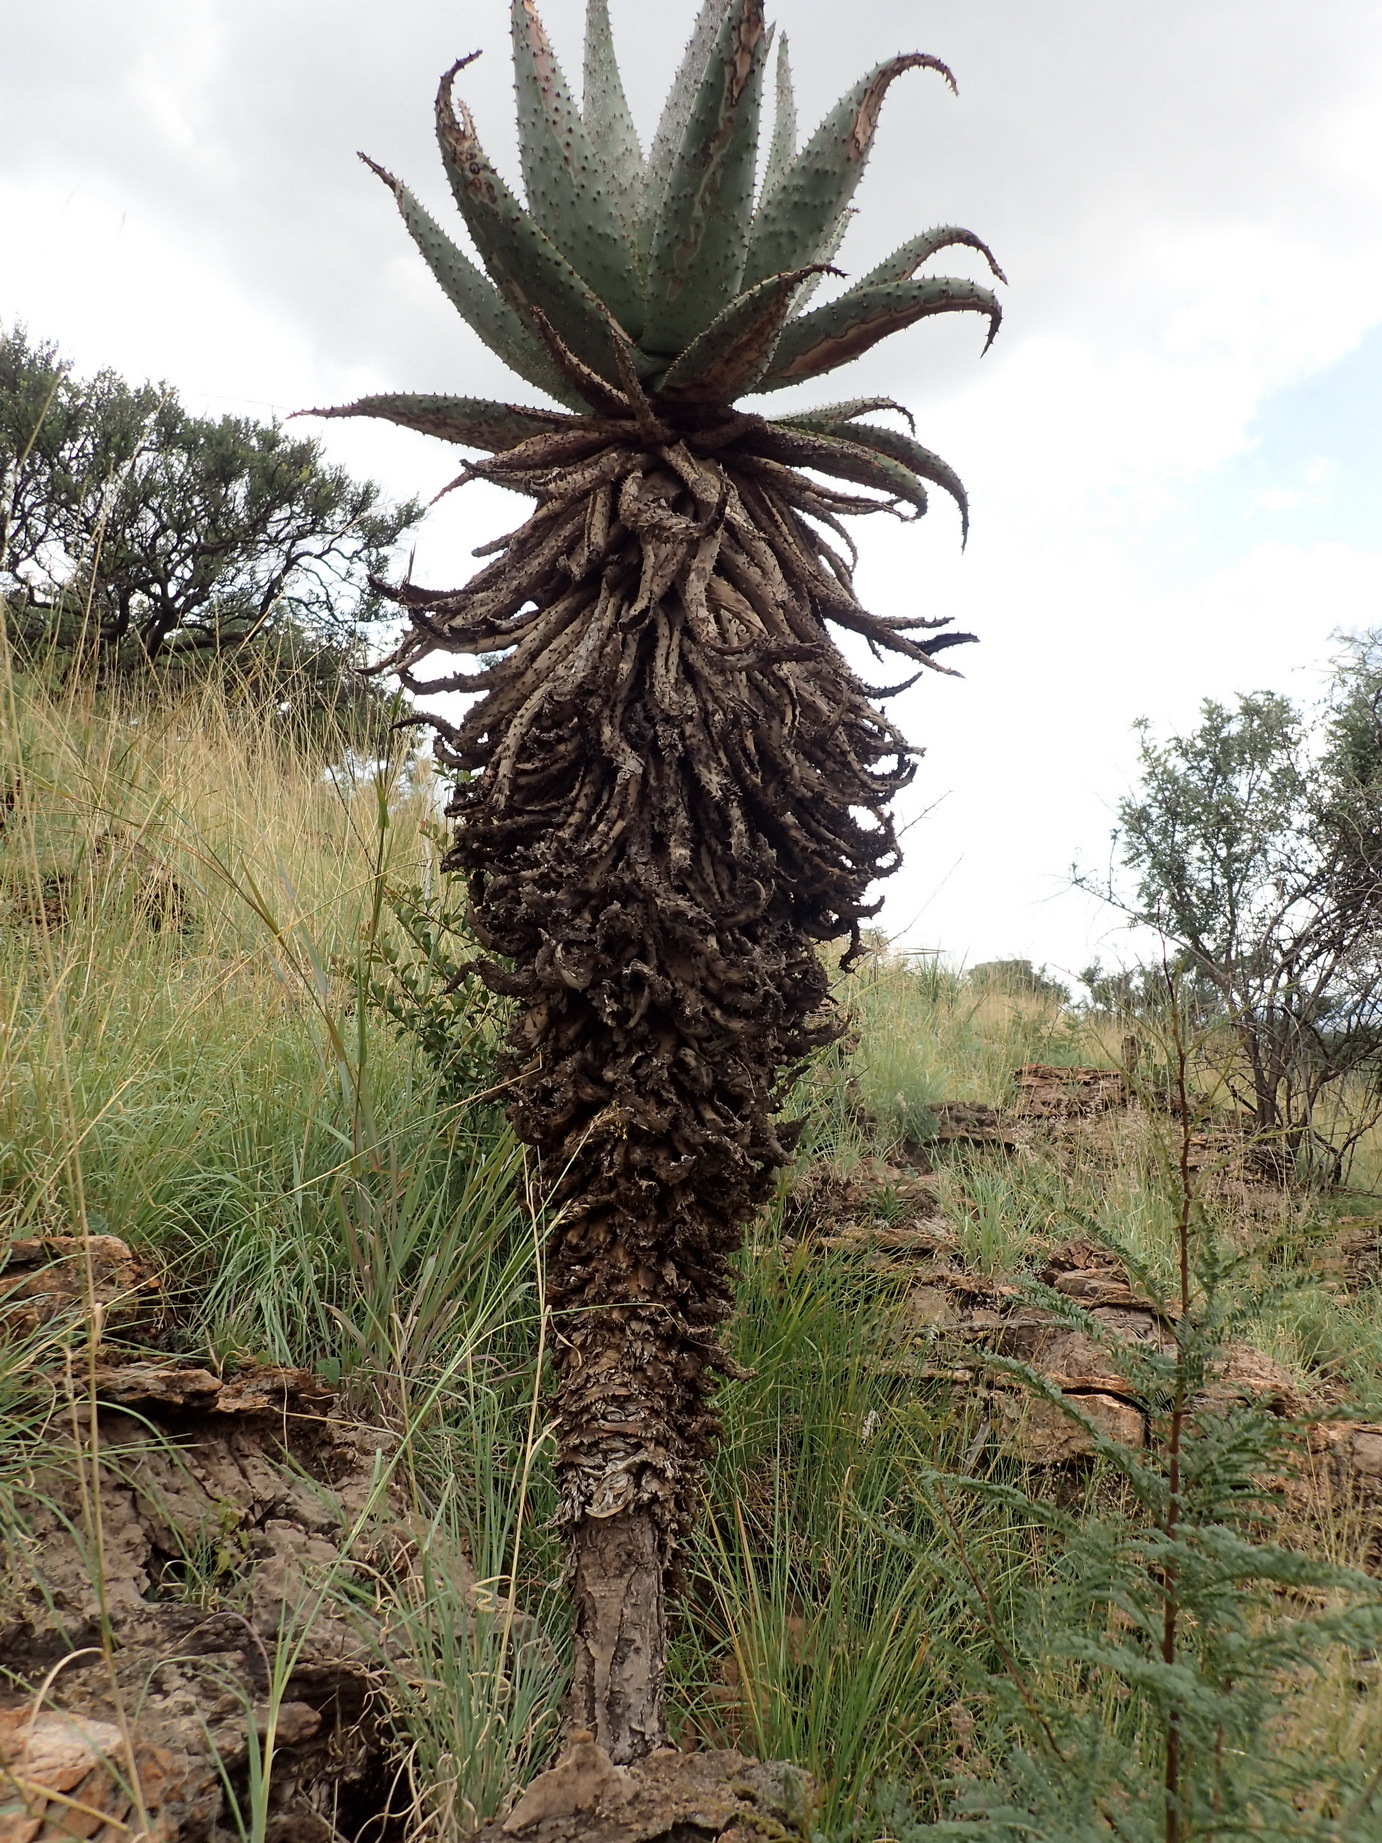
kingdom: Plantae
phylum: Tracheophyta
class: Liliopsida
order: Asparagales
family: Asphodelaceae
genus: Aloe
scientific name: Aloe marlothii
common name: Flat-flowered aloe
